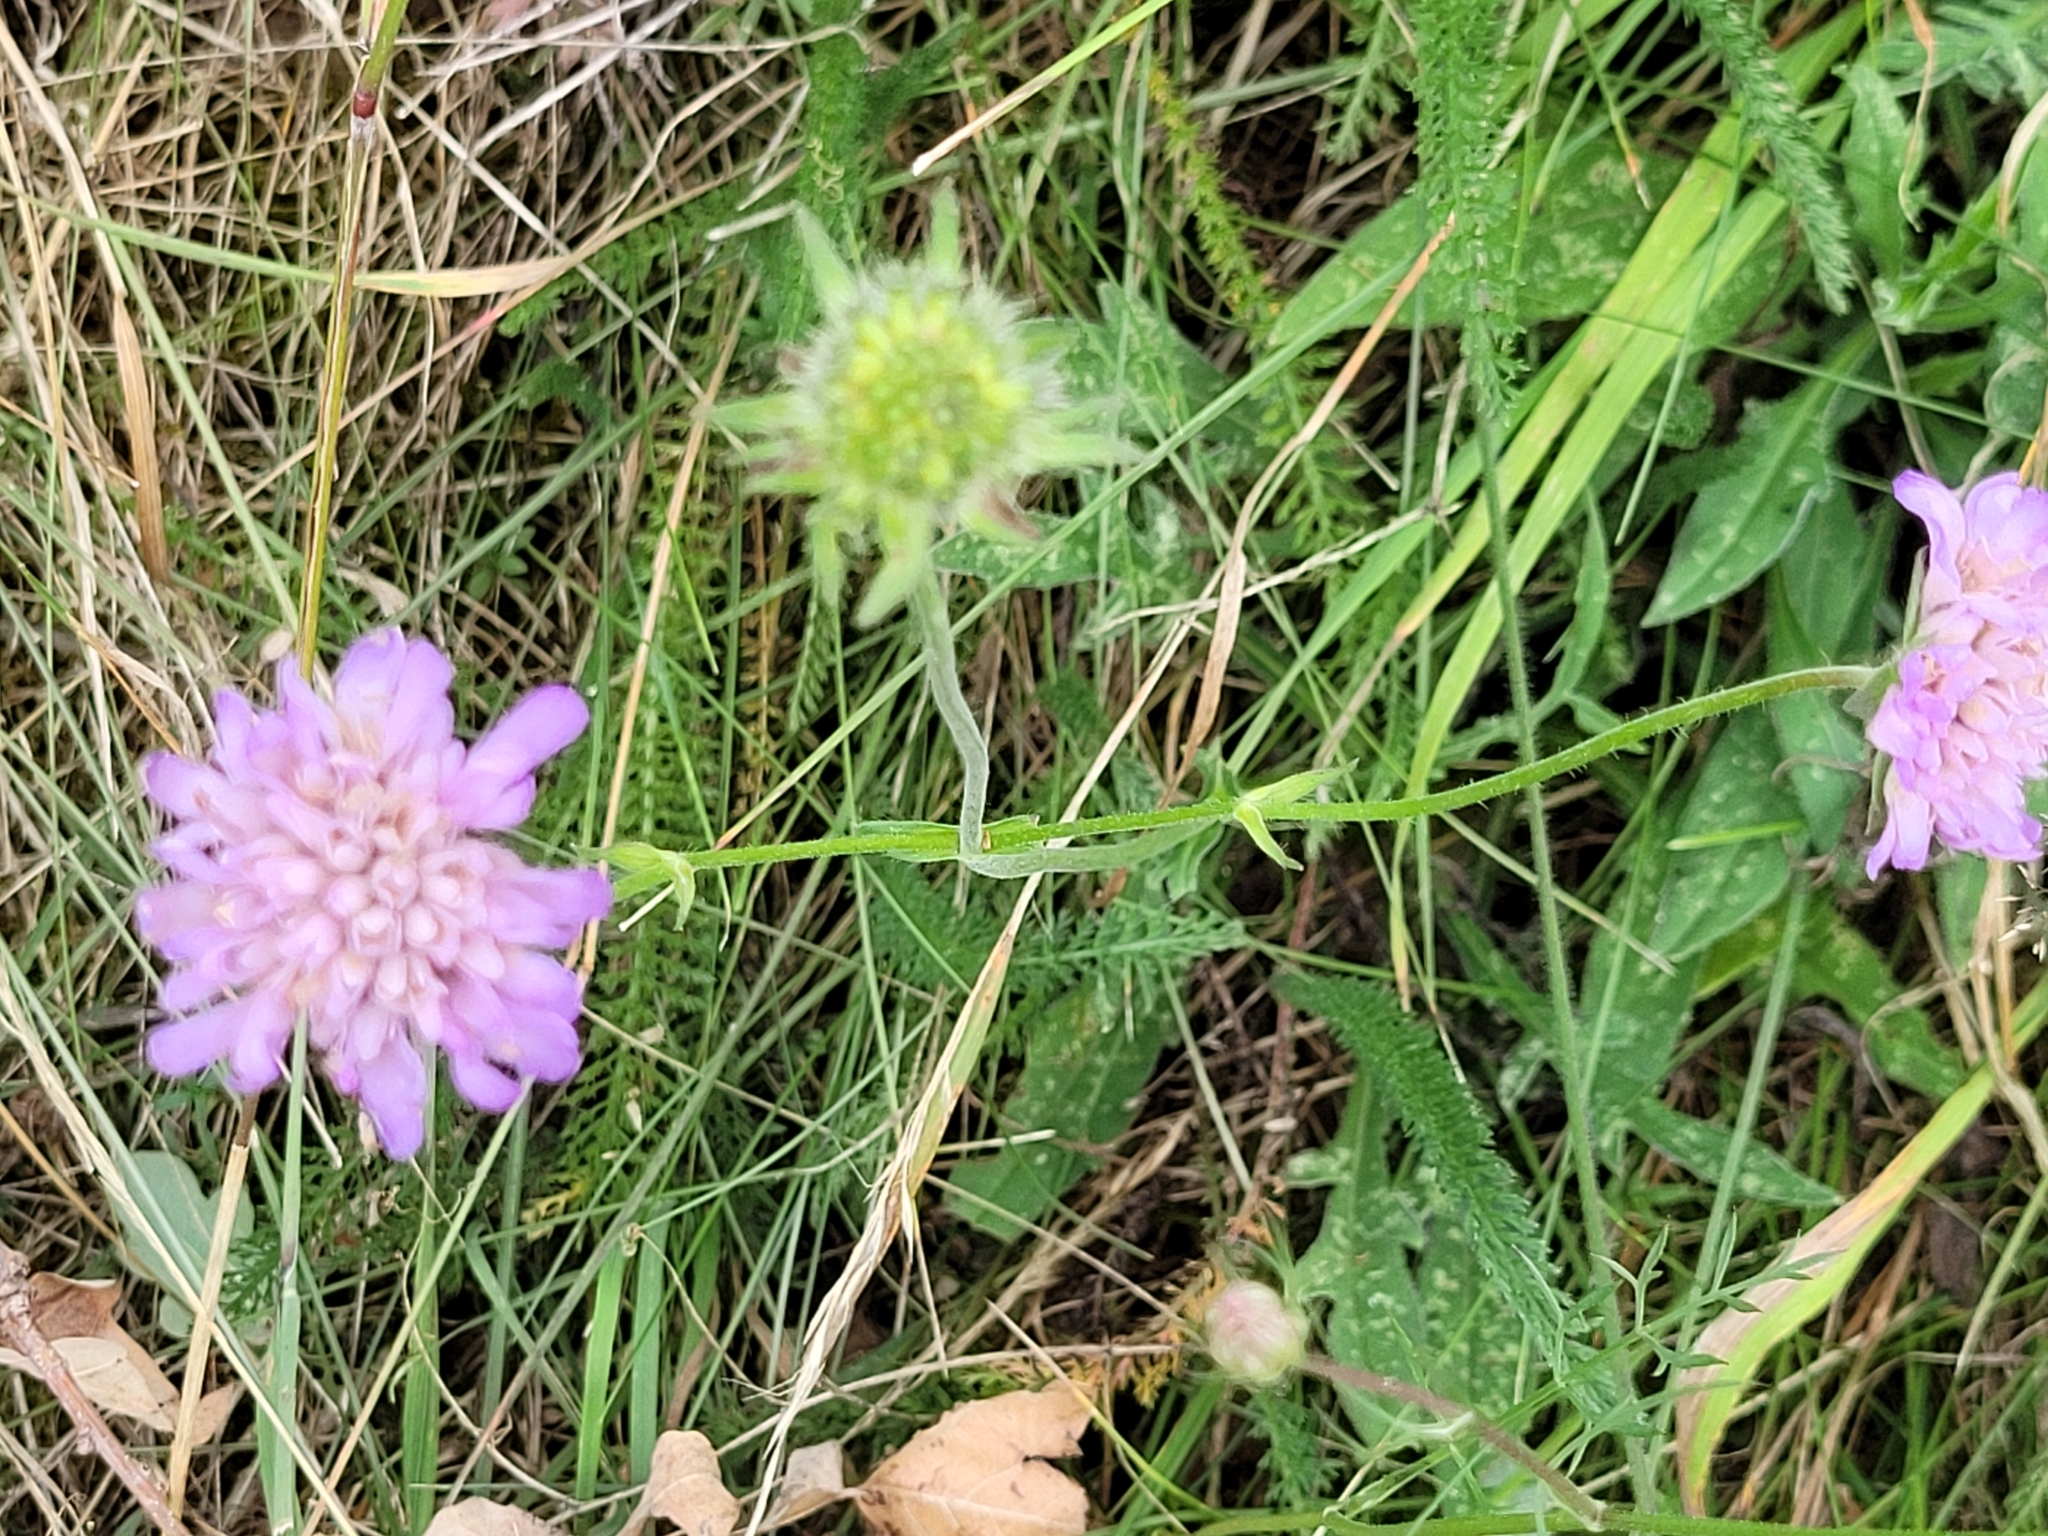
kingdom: Plantae
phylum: Tracheophyta
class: Magnoliopsida
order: Dipsacales
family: Caprifoliaceae
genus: Knautia
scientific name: Knautia arvensis
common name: Field scabiosa
